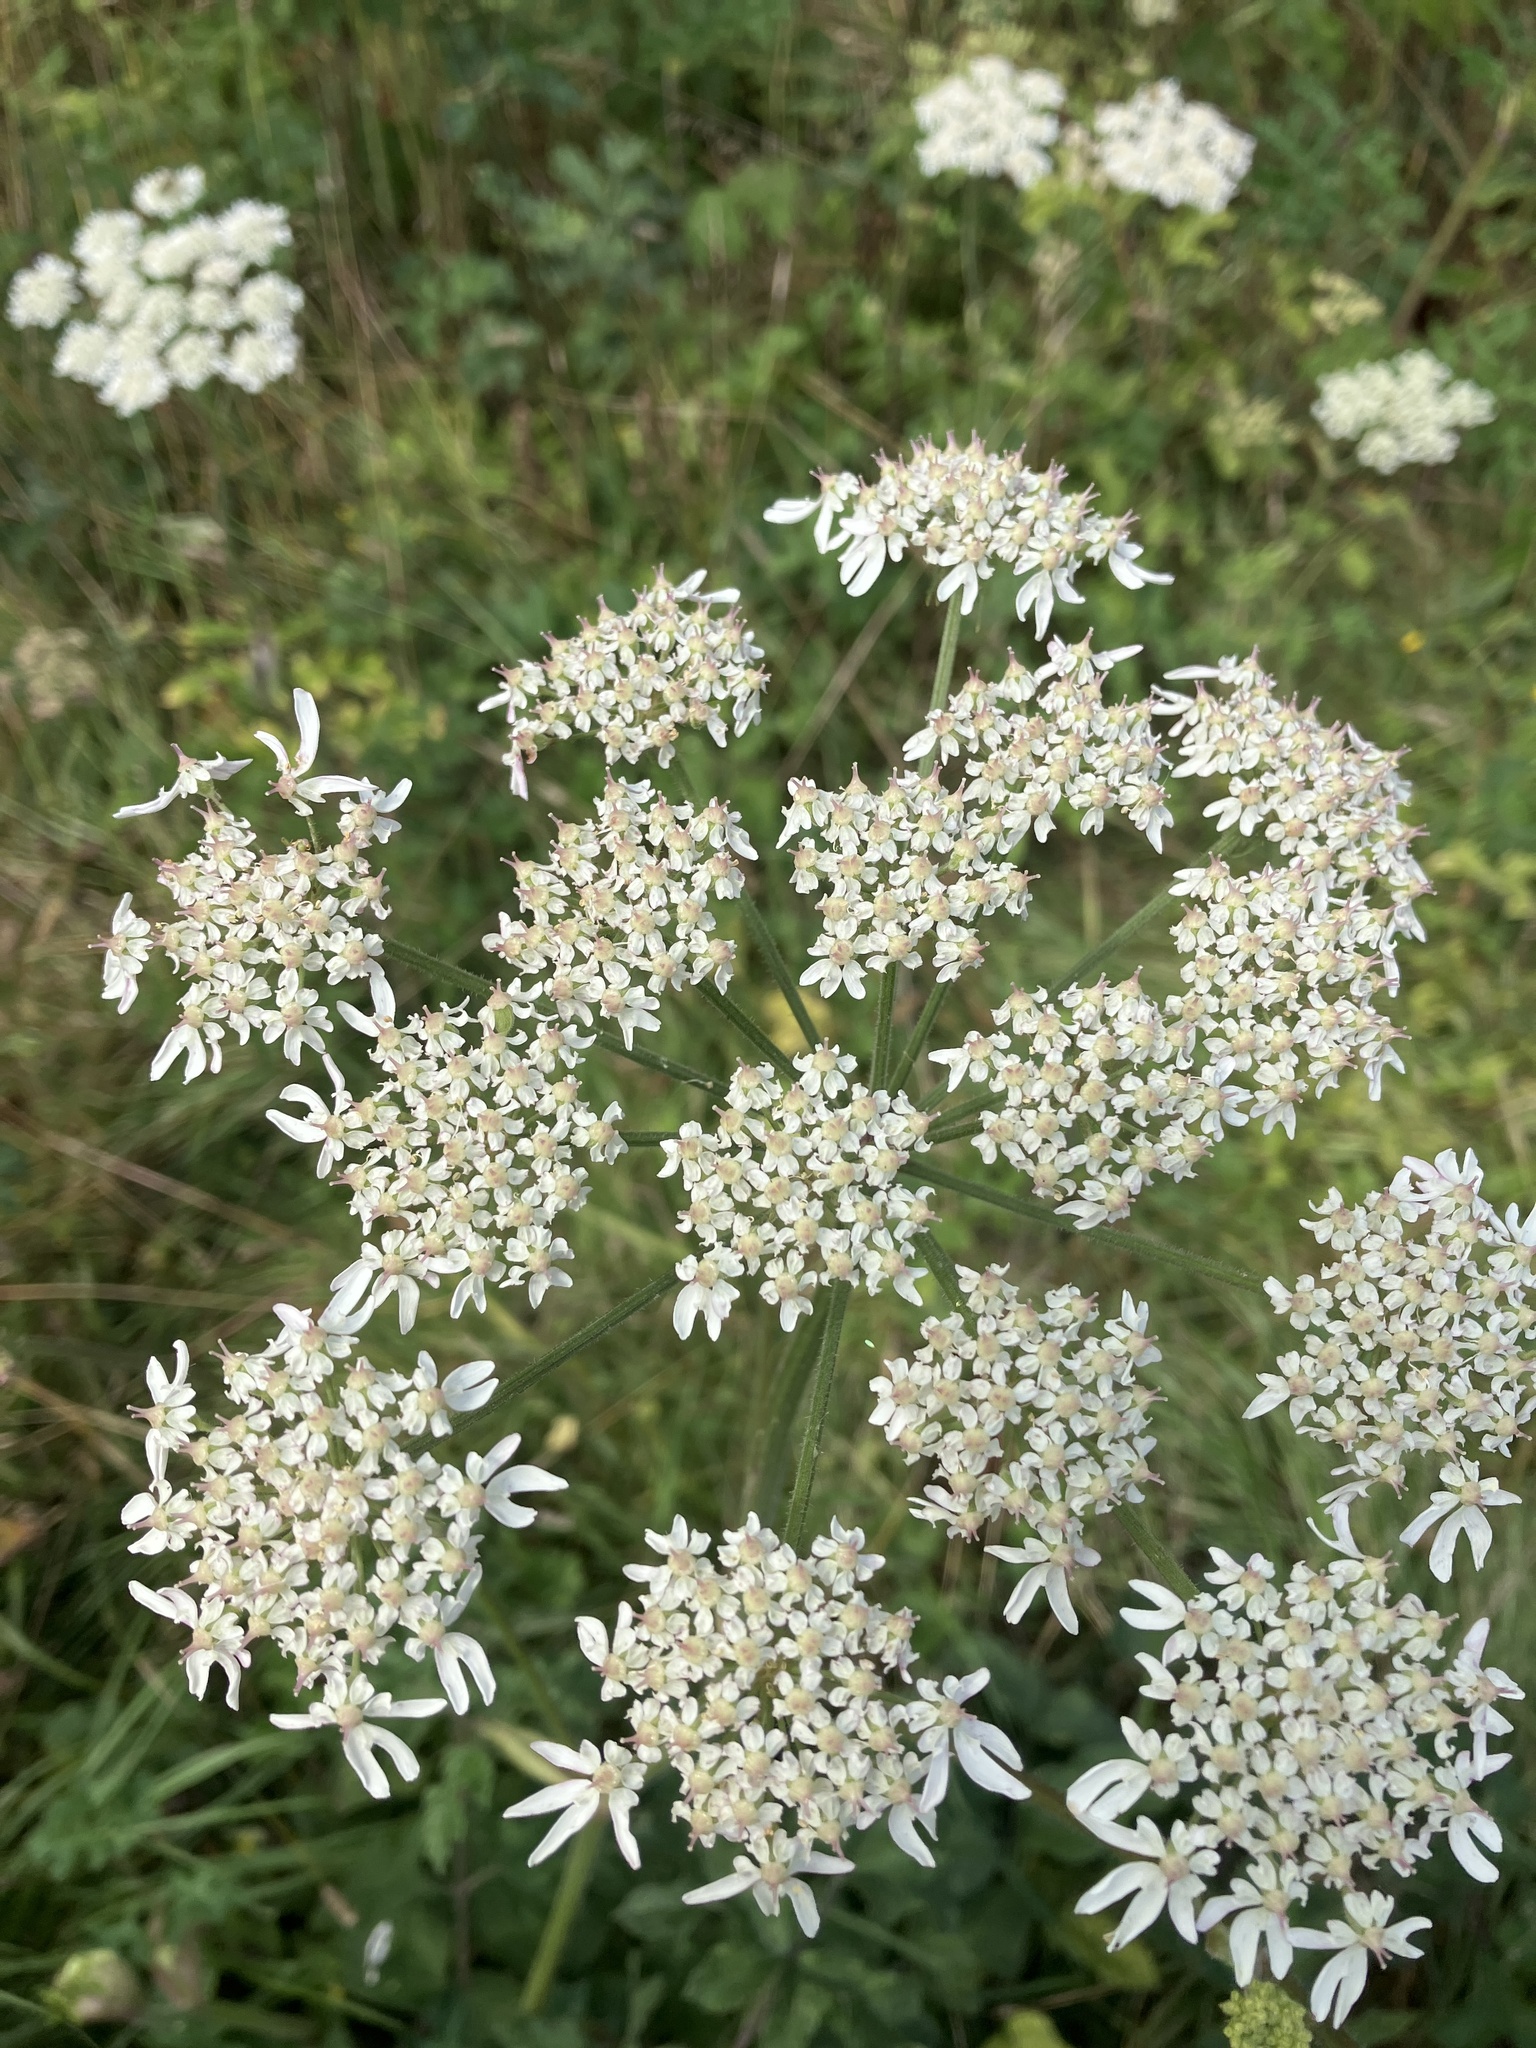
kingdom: Plantae
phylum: Tracheophyta
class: Magnoliopsida
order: Apiales
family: Apiaceae
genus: Heracleum
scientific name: Heracleum sphondylium
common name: Hogweed
